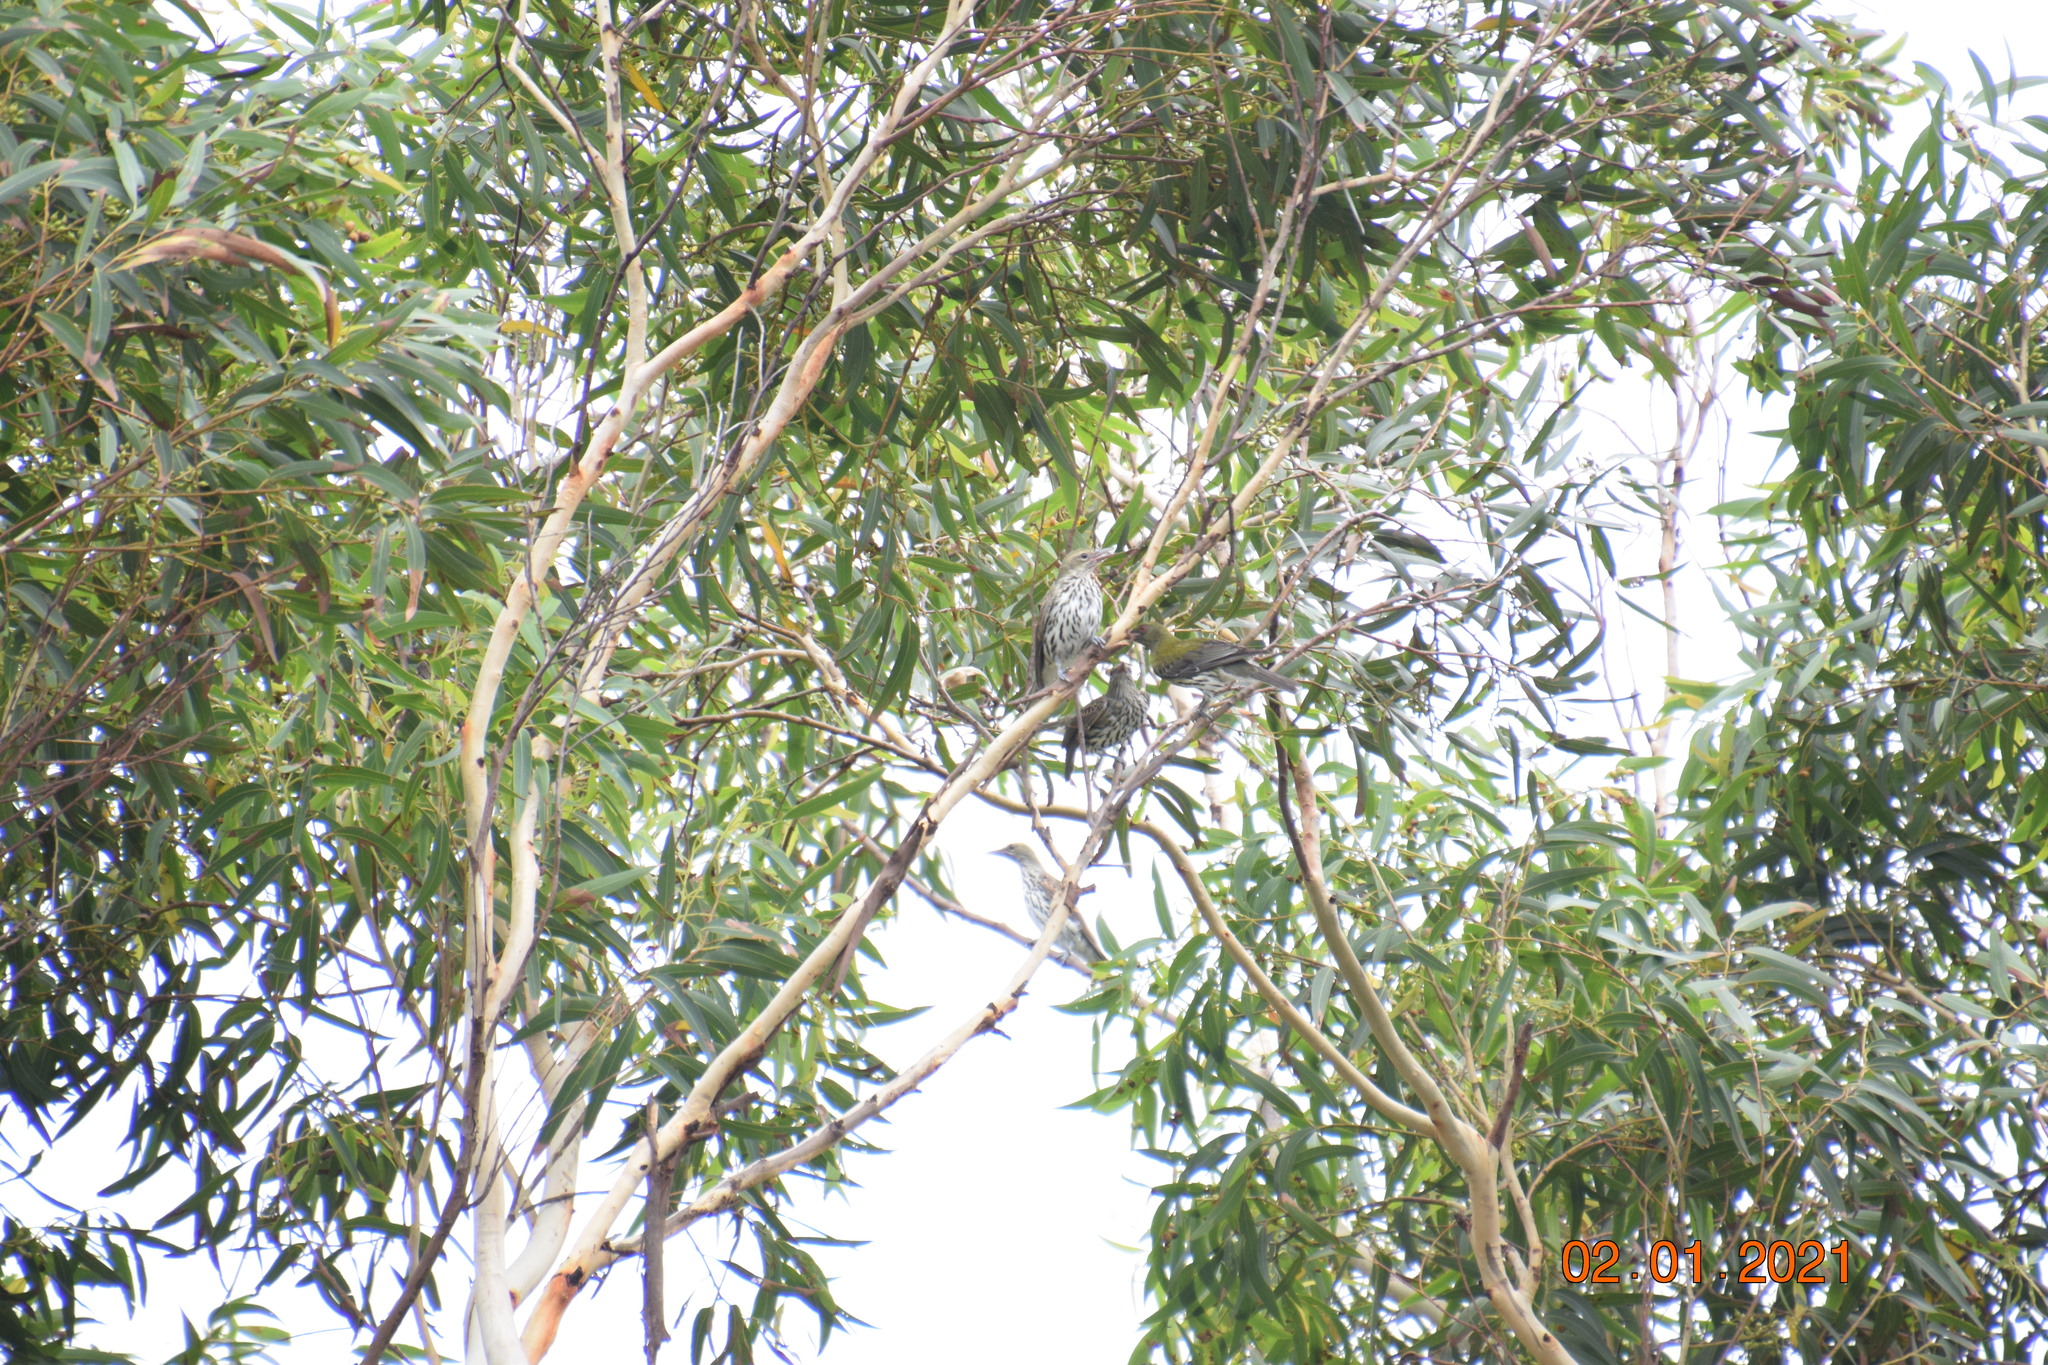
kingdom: Animalia
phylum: Chordata
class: Aves
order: Passeriformes
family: Oriolidae
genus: Oriolus
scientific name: Oriolus sagittatus
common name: Olive-backed oriole
